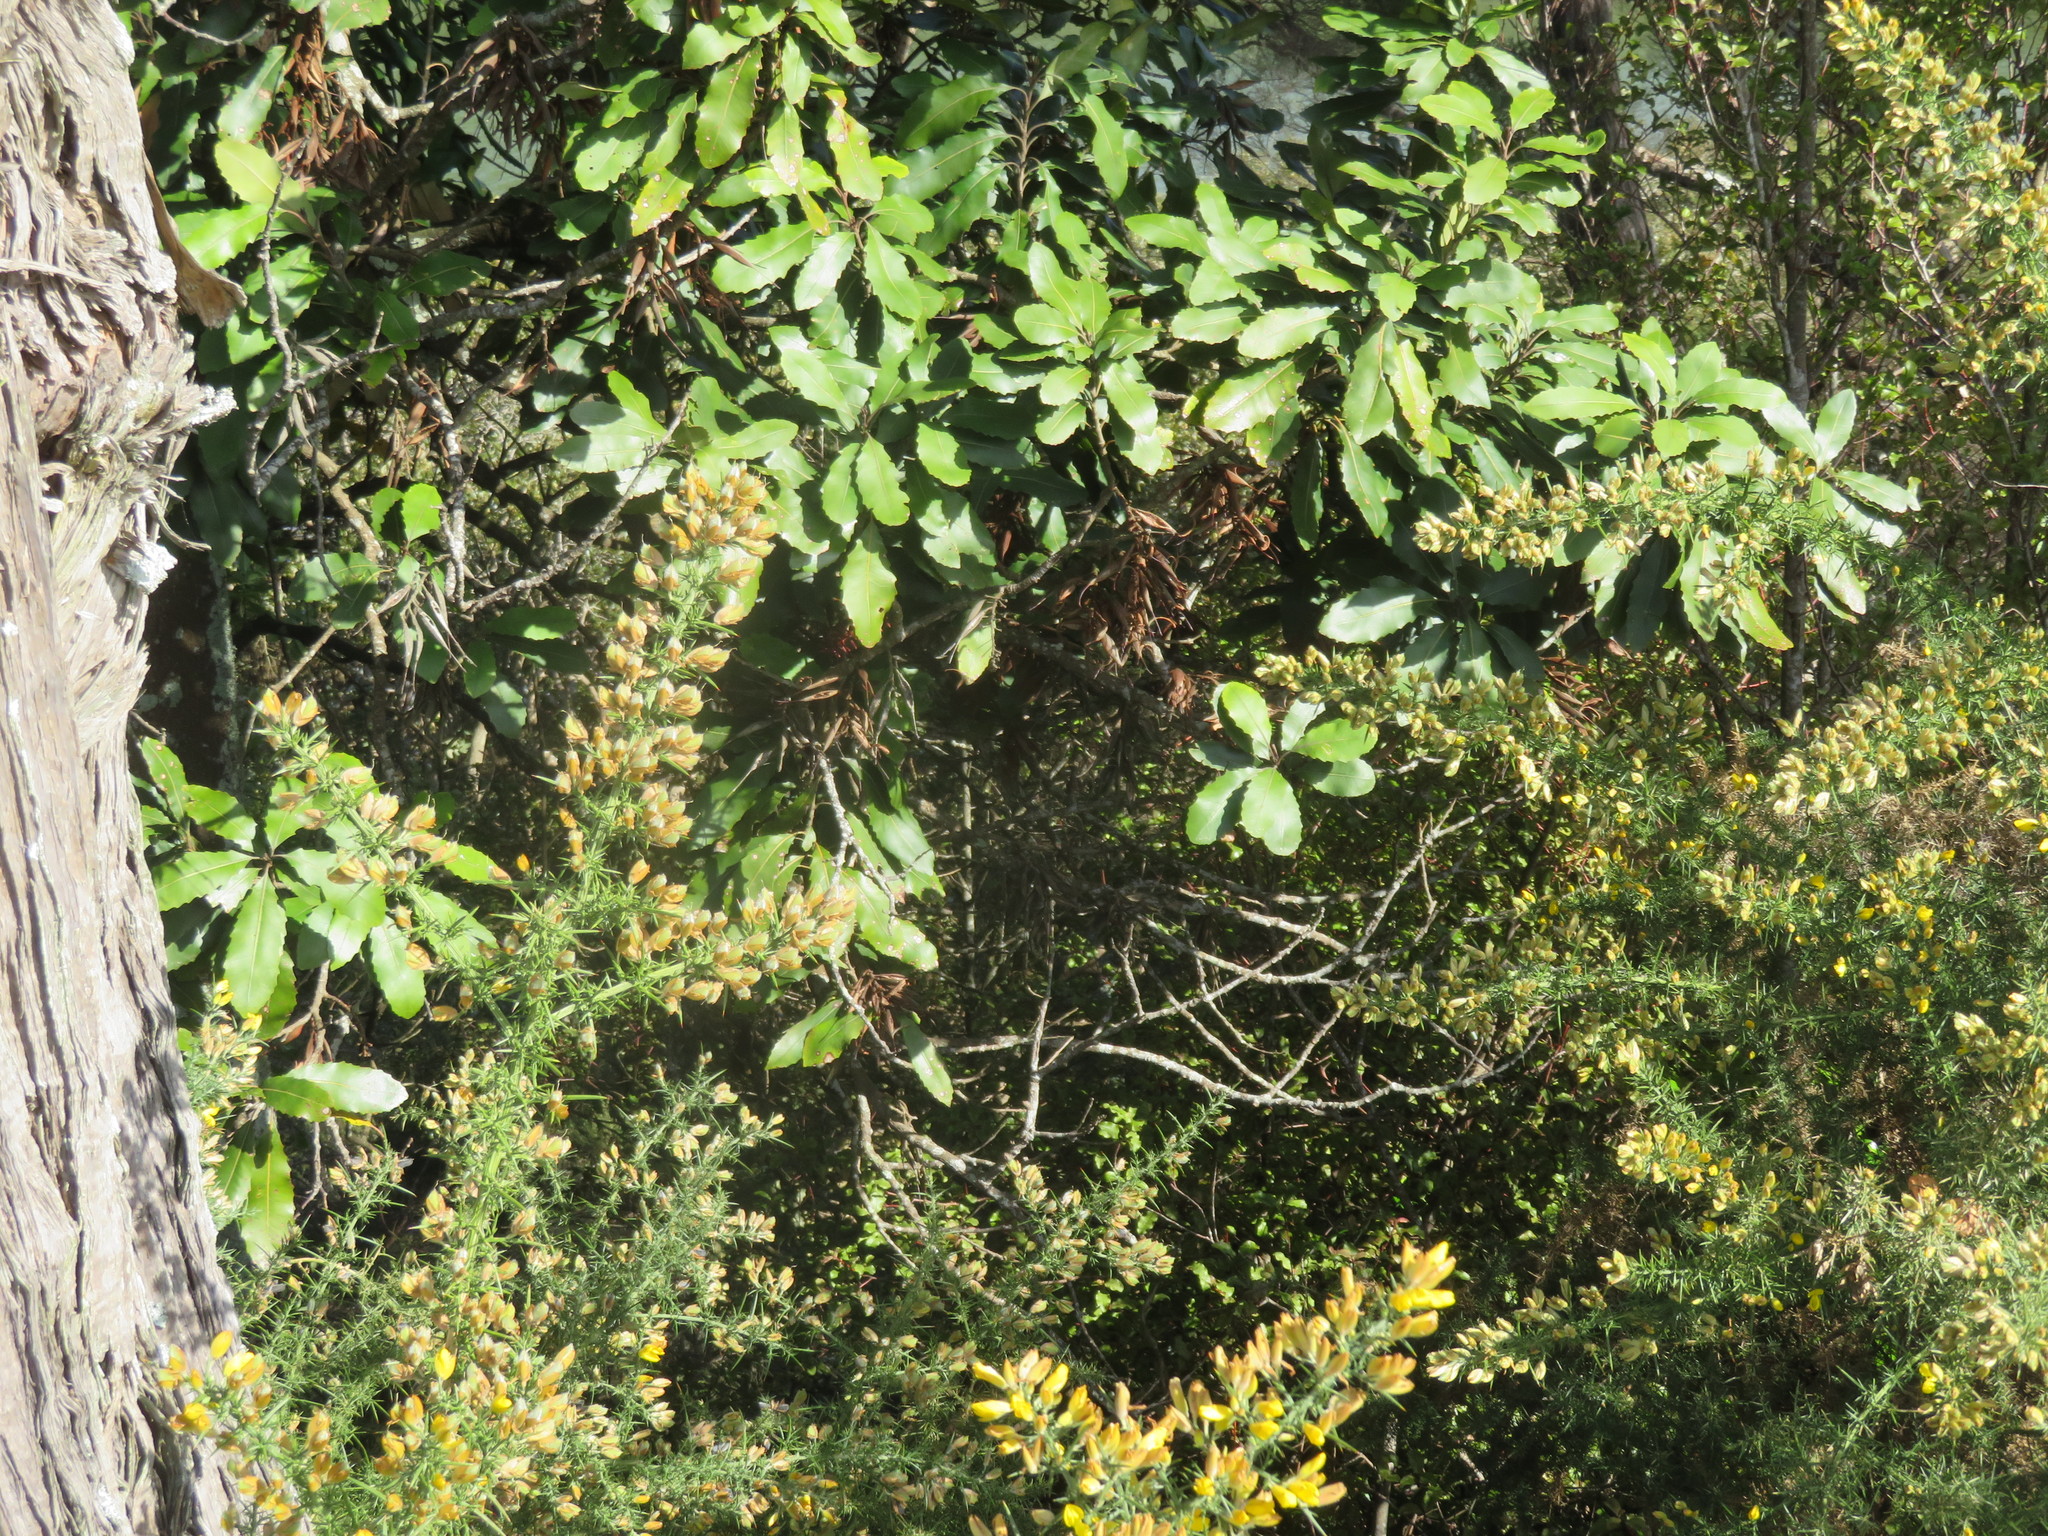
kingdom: Plantae
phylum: Tracheophyta
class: Magnoliopsida
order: Fabales
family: Fabaceae
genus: Ulex
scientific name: Ulex europaeus
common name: Common gorse
